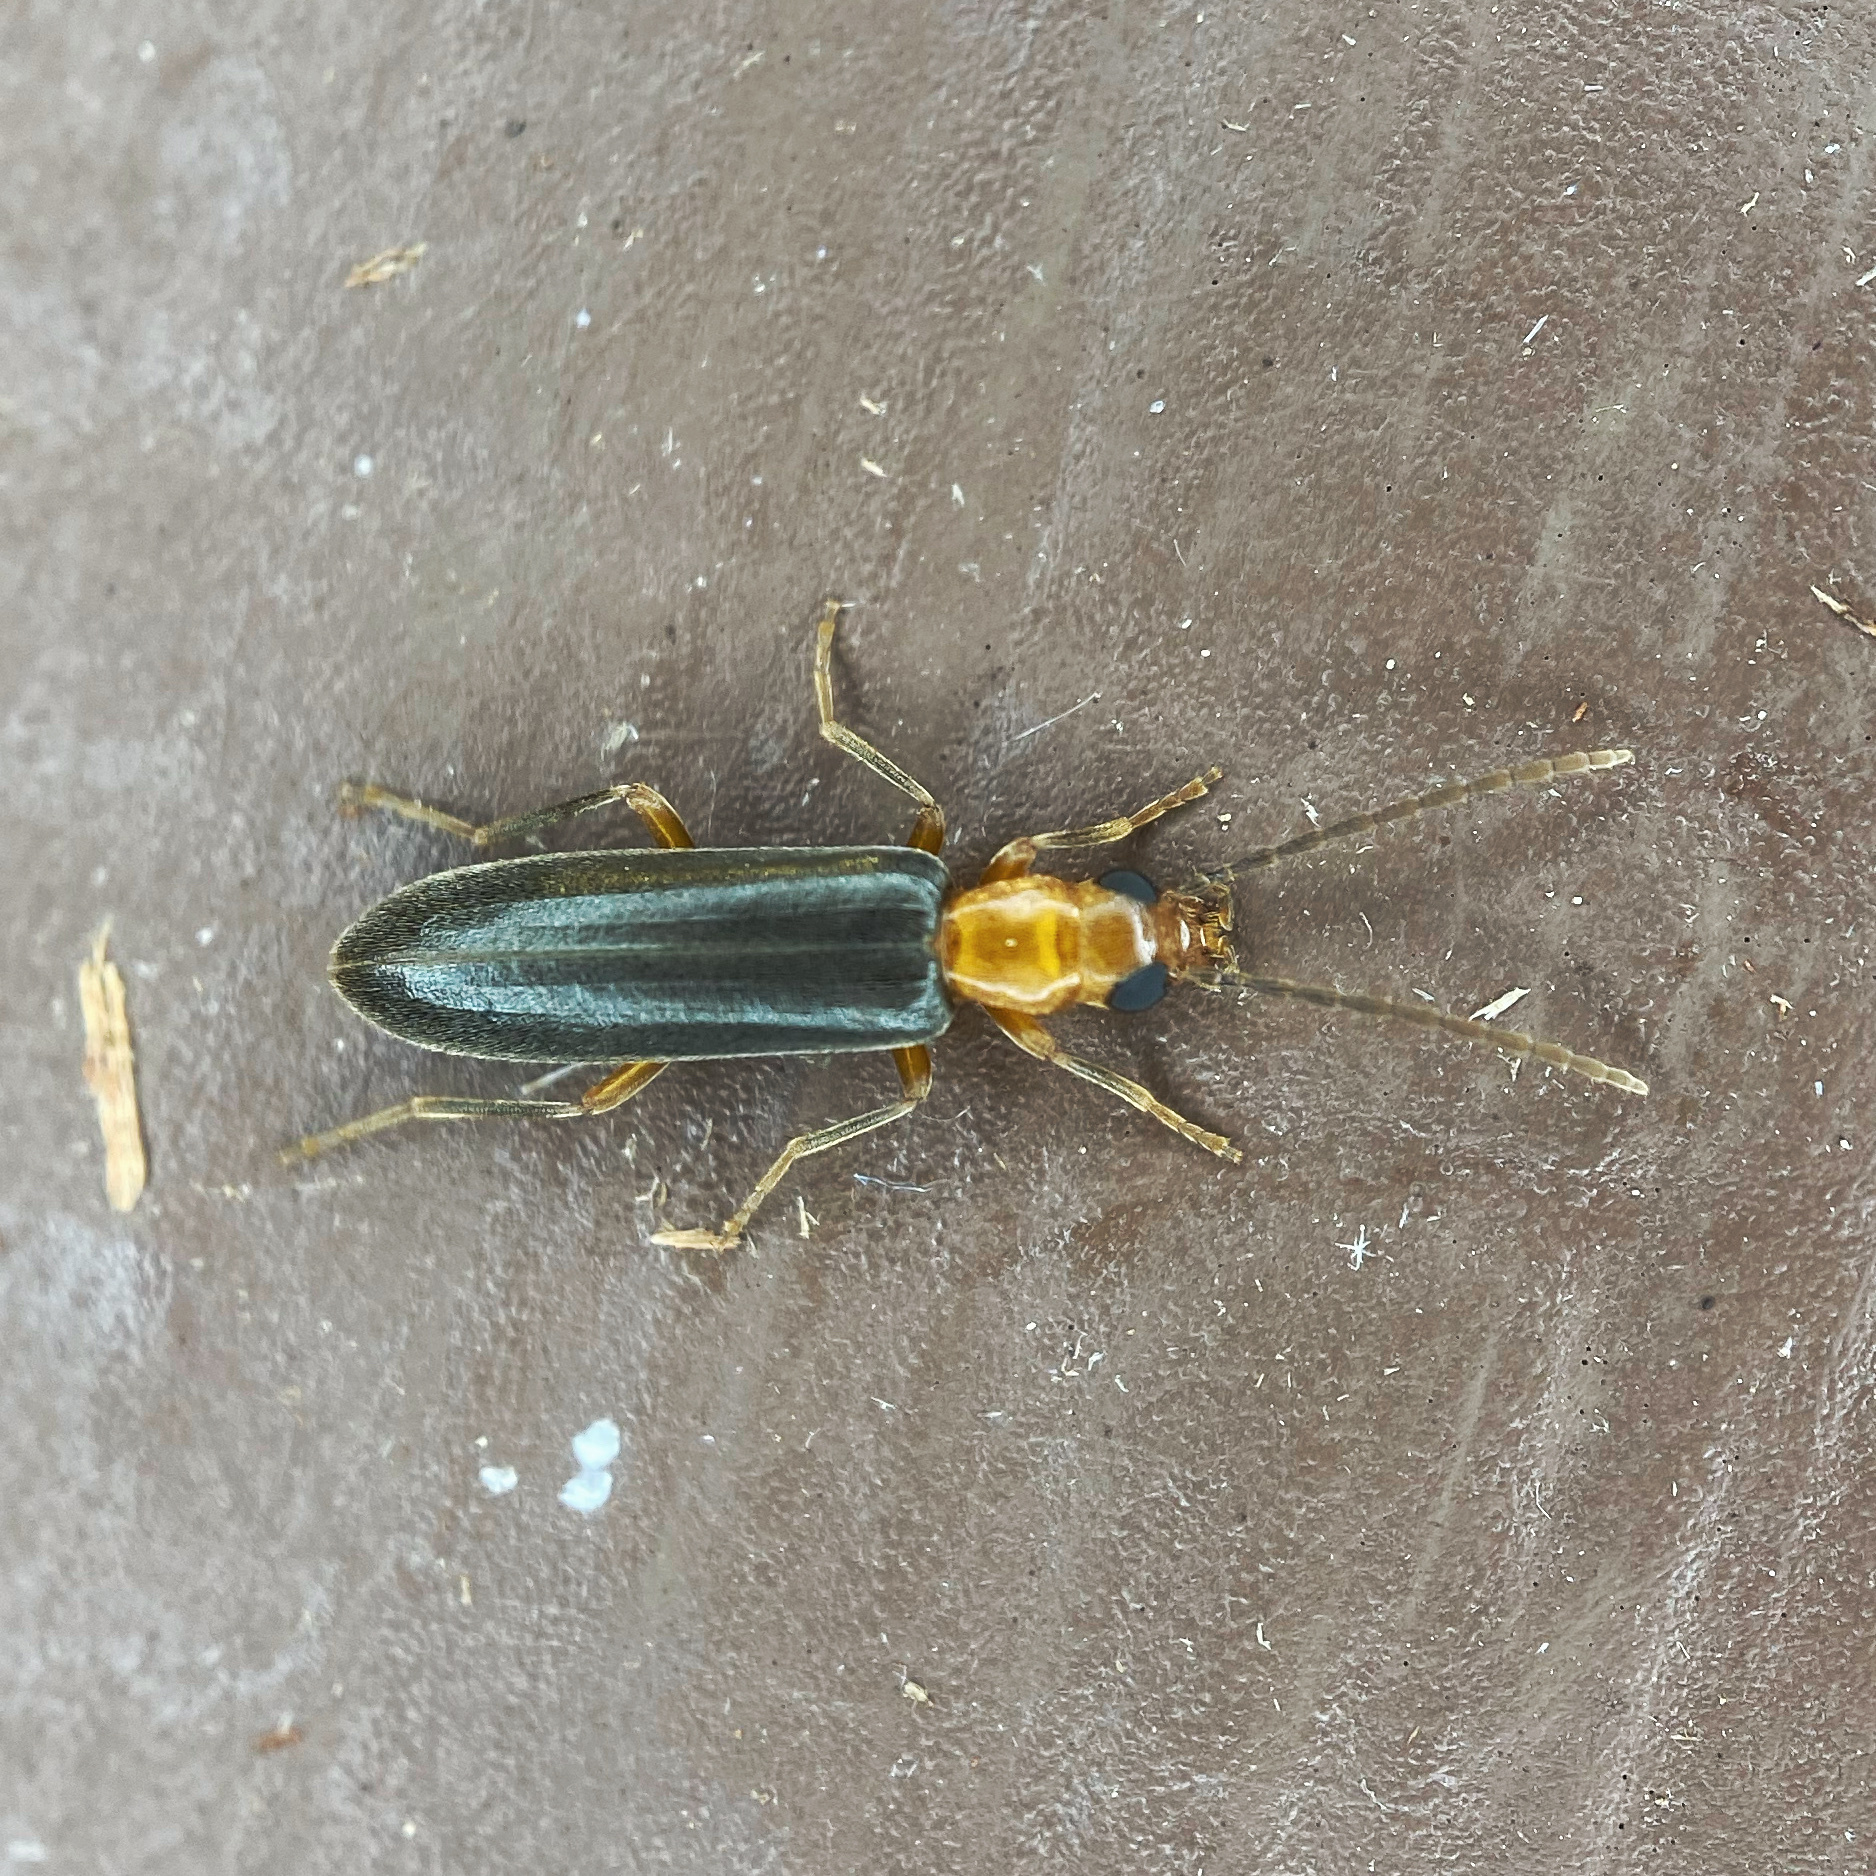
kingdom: Animalia
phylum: Arthropoda
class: Insecta
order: Coleoptera
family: Oedemeridae
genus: Xanthochroina
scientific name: Xanthochroina bicolor
